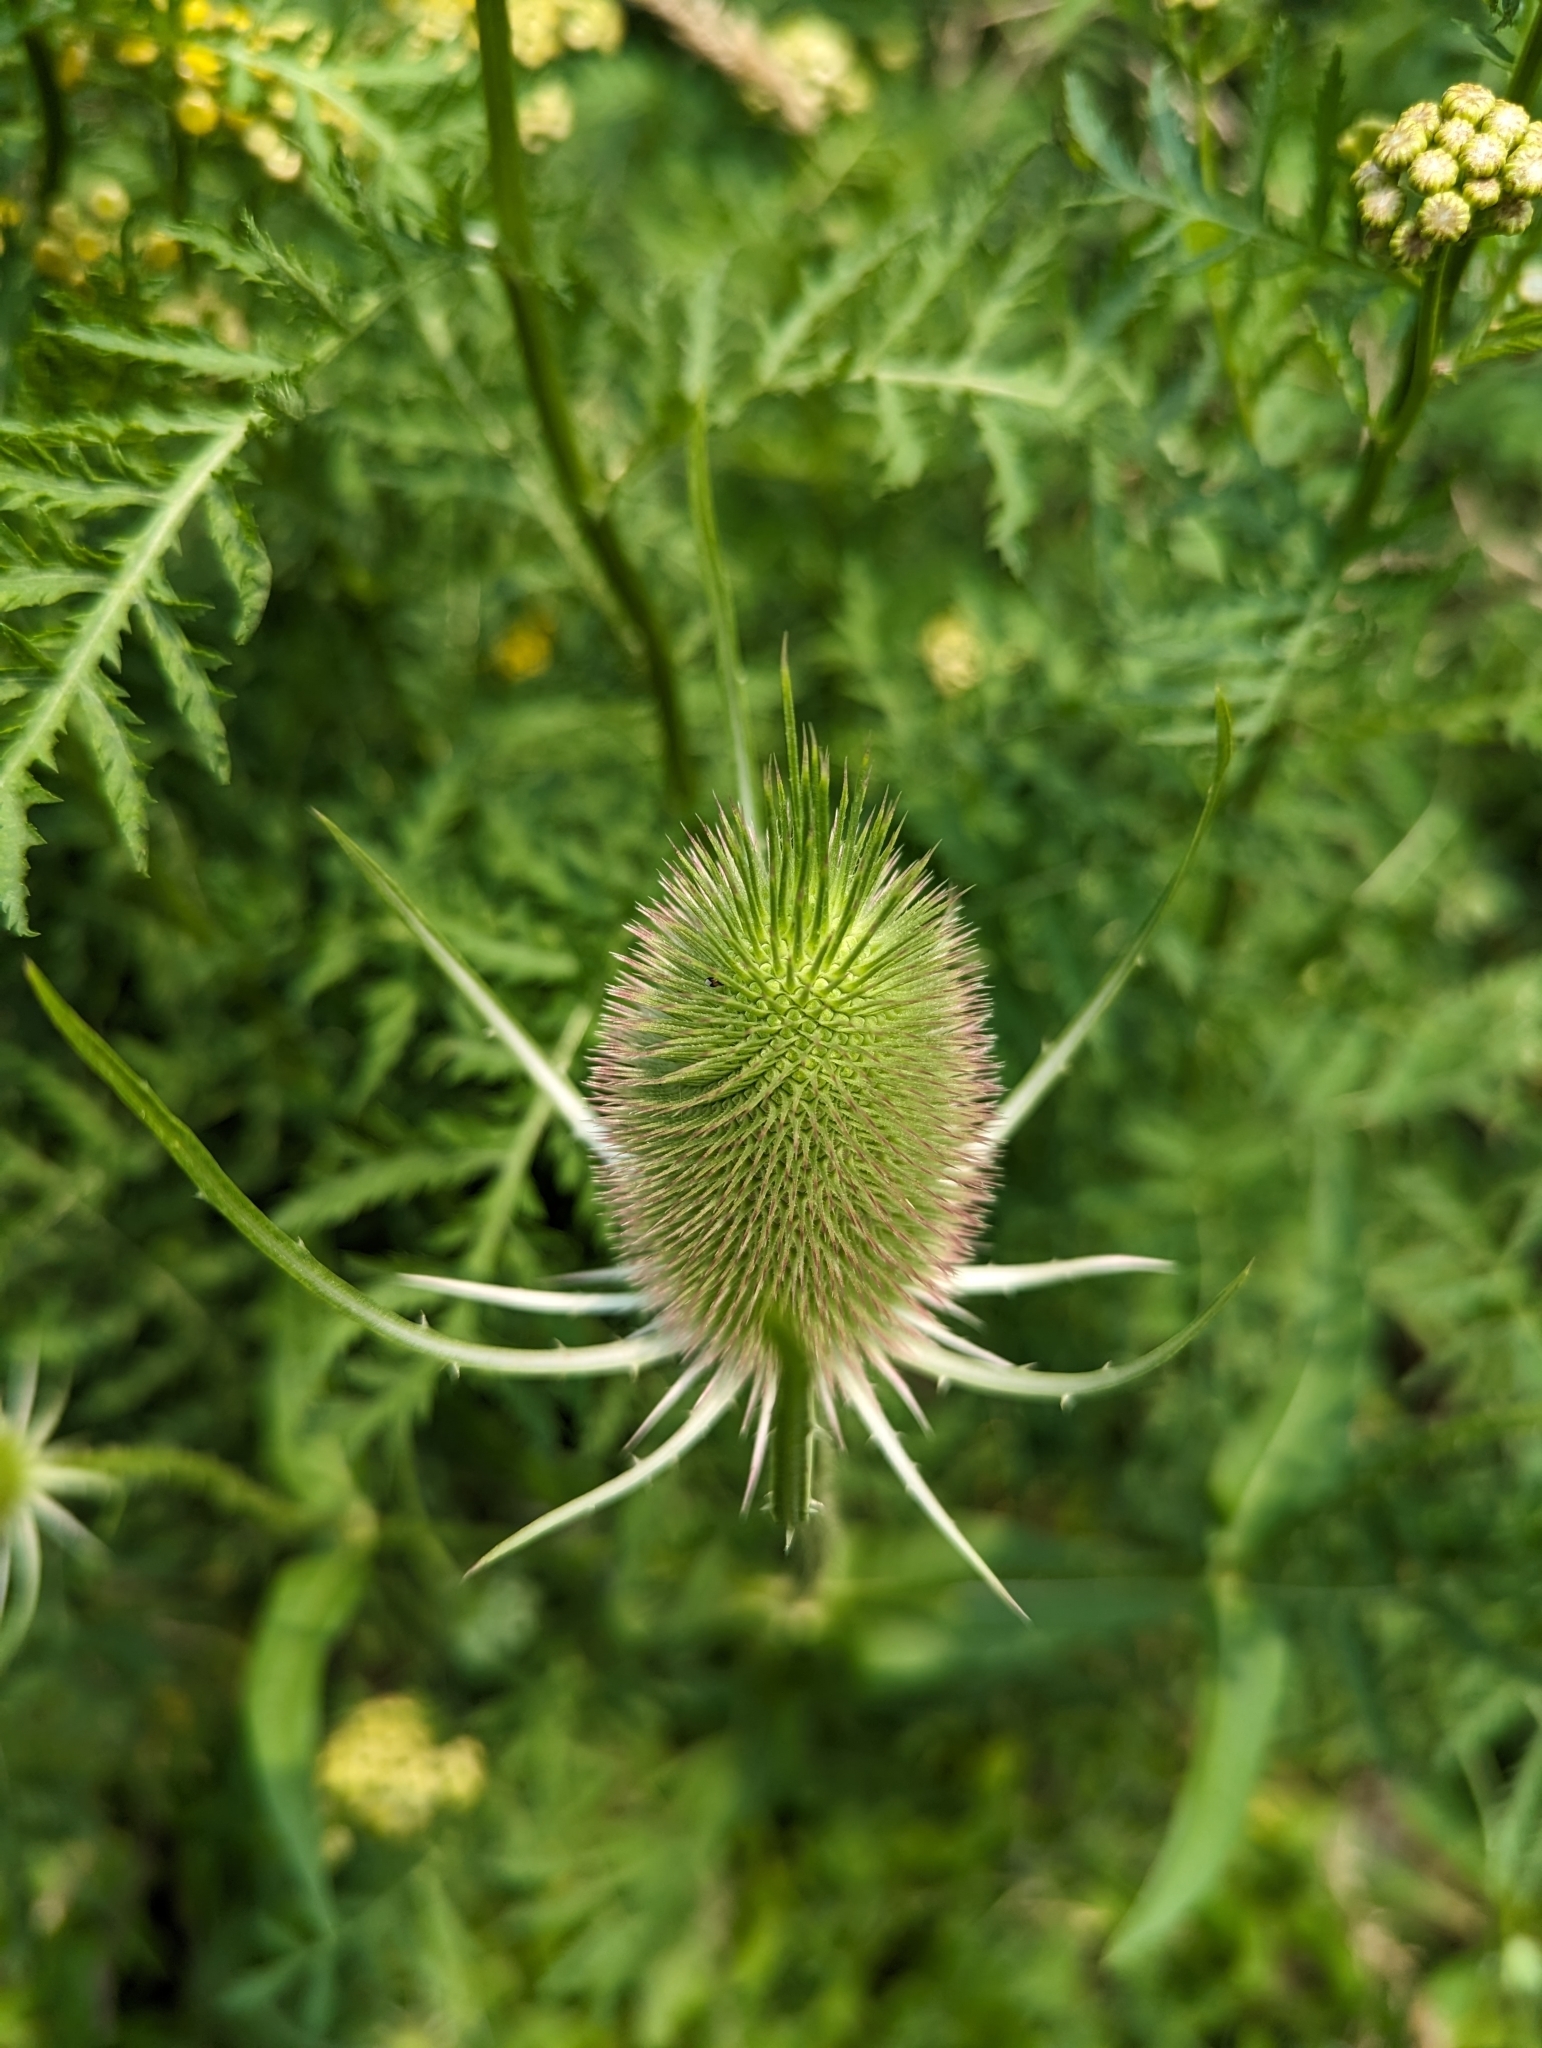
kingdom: Plantae
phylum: Tracheophyta
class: Magnoliopsida
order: Dipsacales
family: Caprifoliaceae
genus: Dipsacus
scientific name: Dipsacus fullonum
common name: Teasel
